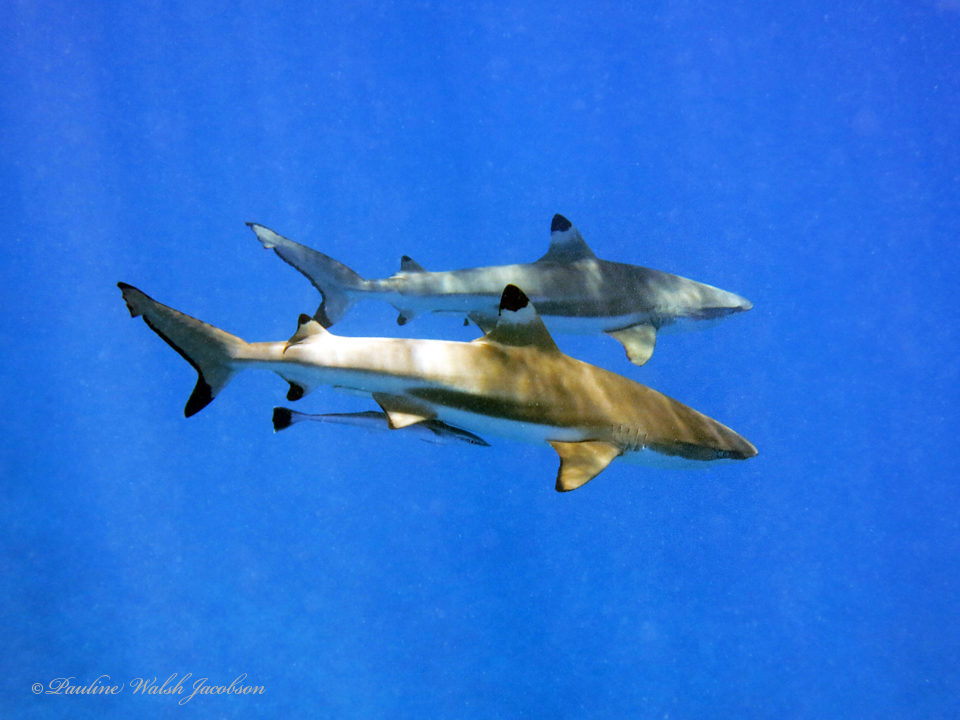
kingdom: Animalia
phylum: Chordata
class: Elasmobranchii
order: Carcharhiniformes
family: Carcharhinidae
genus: Carcharhinus
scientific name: Carcharhinus melanopterus
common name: Blacktip reef shark
